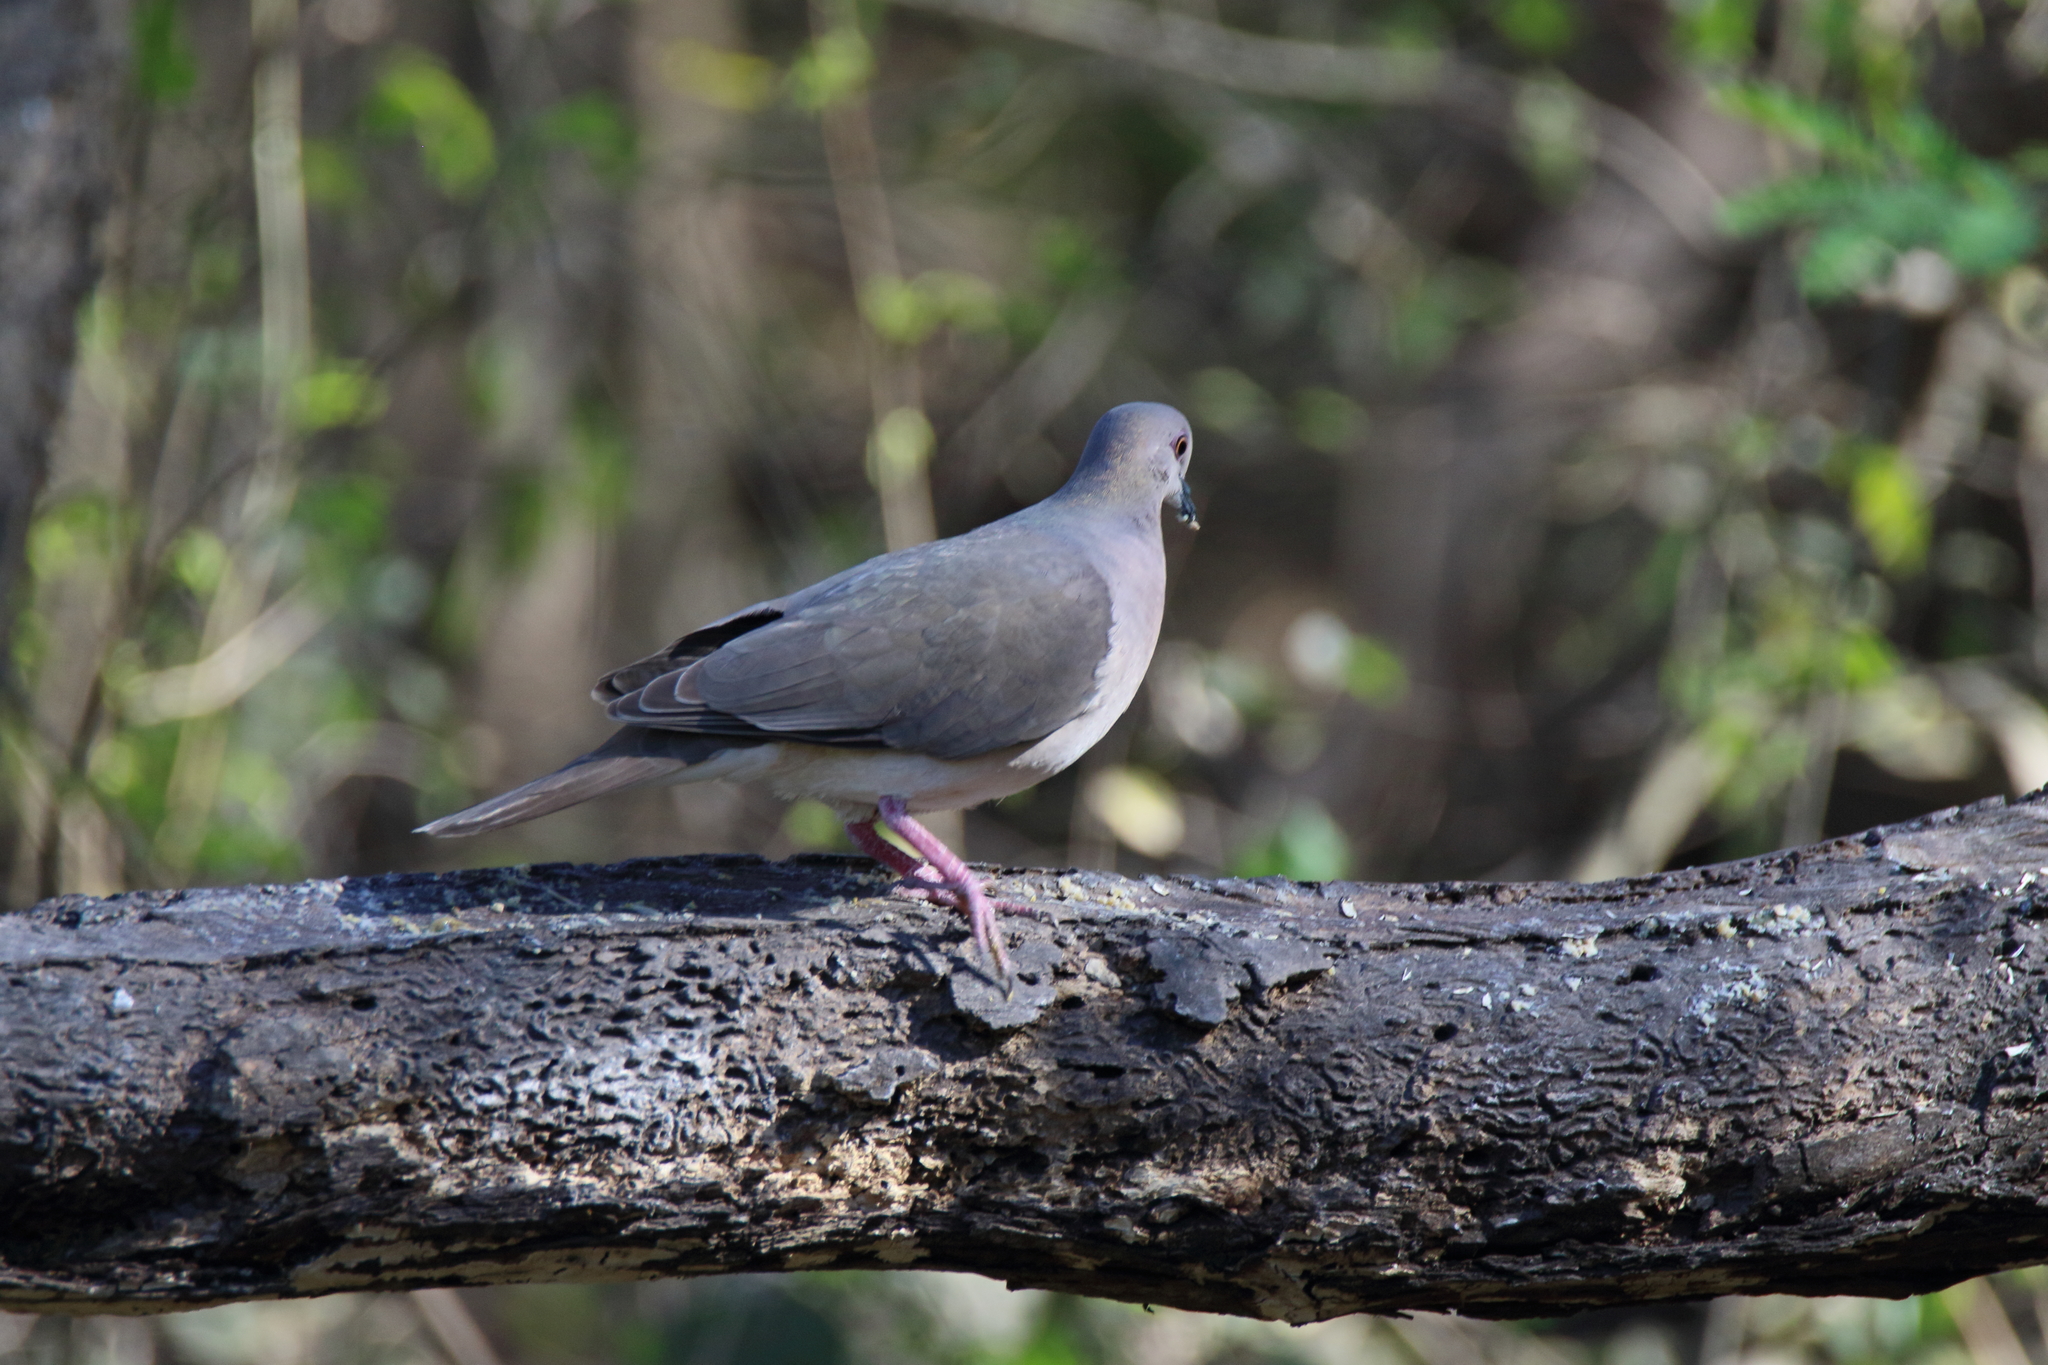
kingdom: Animalia
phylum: Chordata
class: Aves
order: Columbiformes
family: Columbidae
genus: Leptotila
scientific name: Leptotila verreauxi
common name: White-tipped dove
